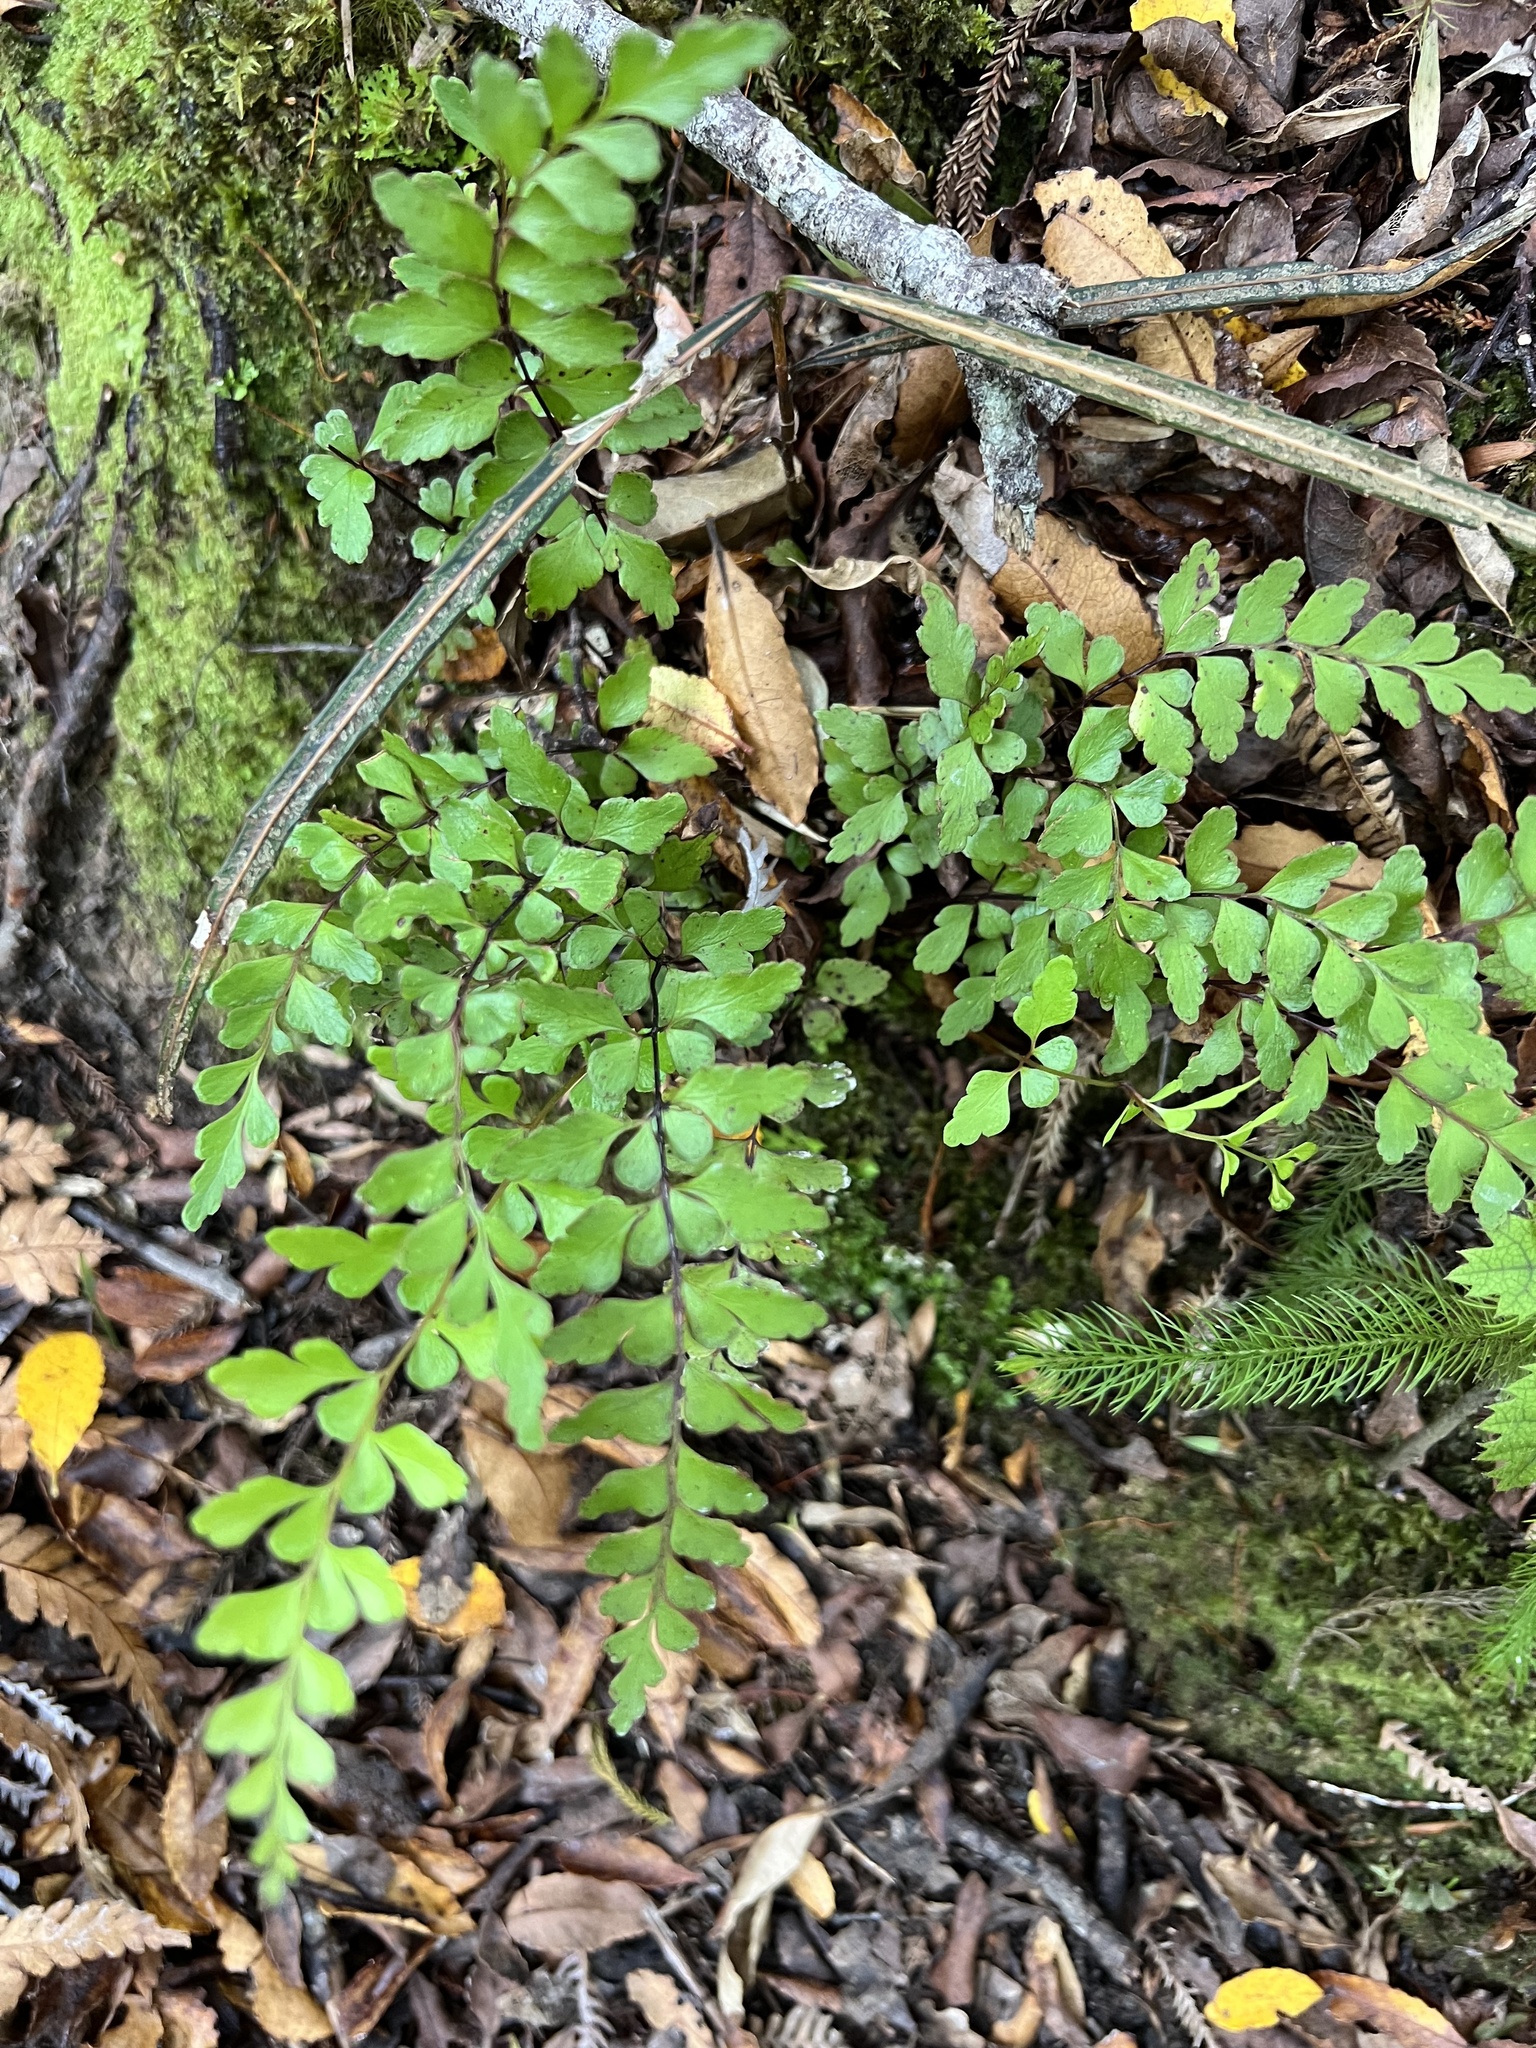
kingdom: Plantae
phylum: Tracheophyta
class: Polypodiopsida
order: Polypodiales
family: Lindsaeaceae
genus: Lindsaea
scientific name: Lindsaea trichomanoides
